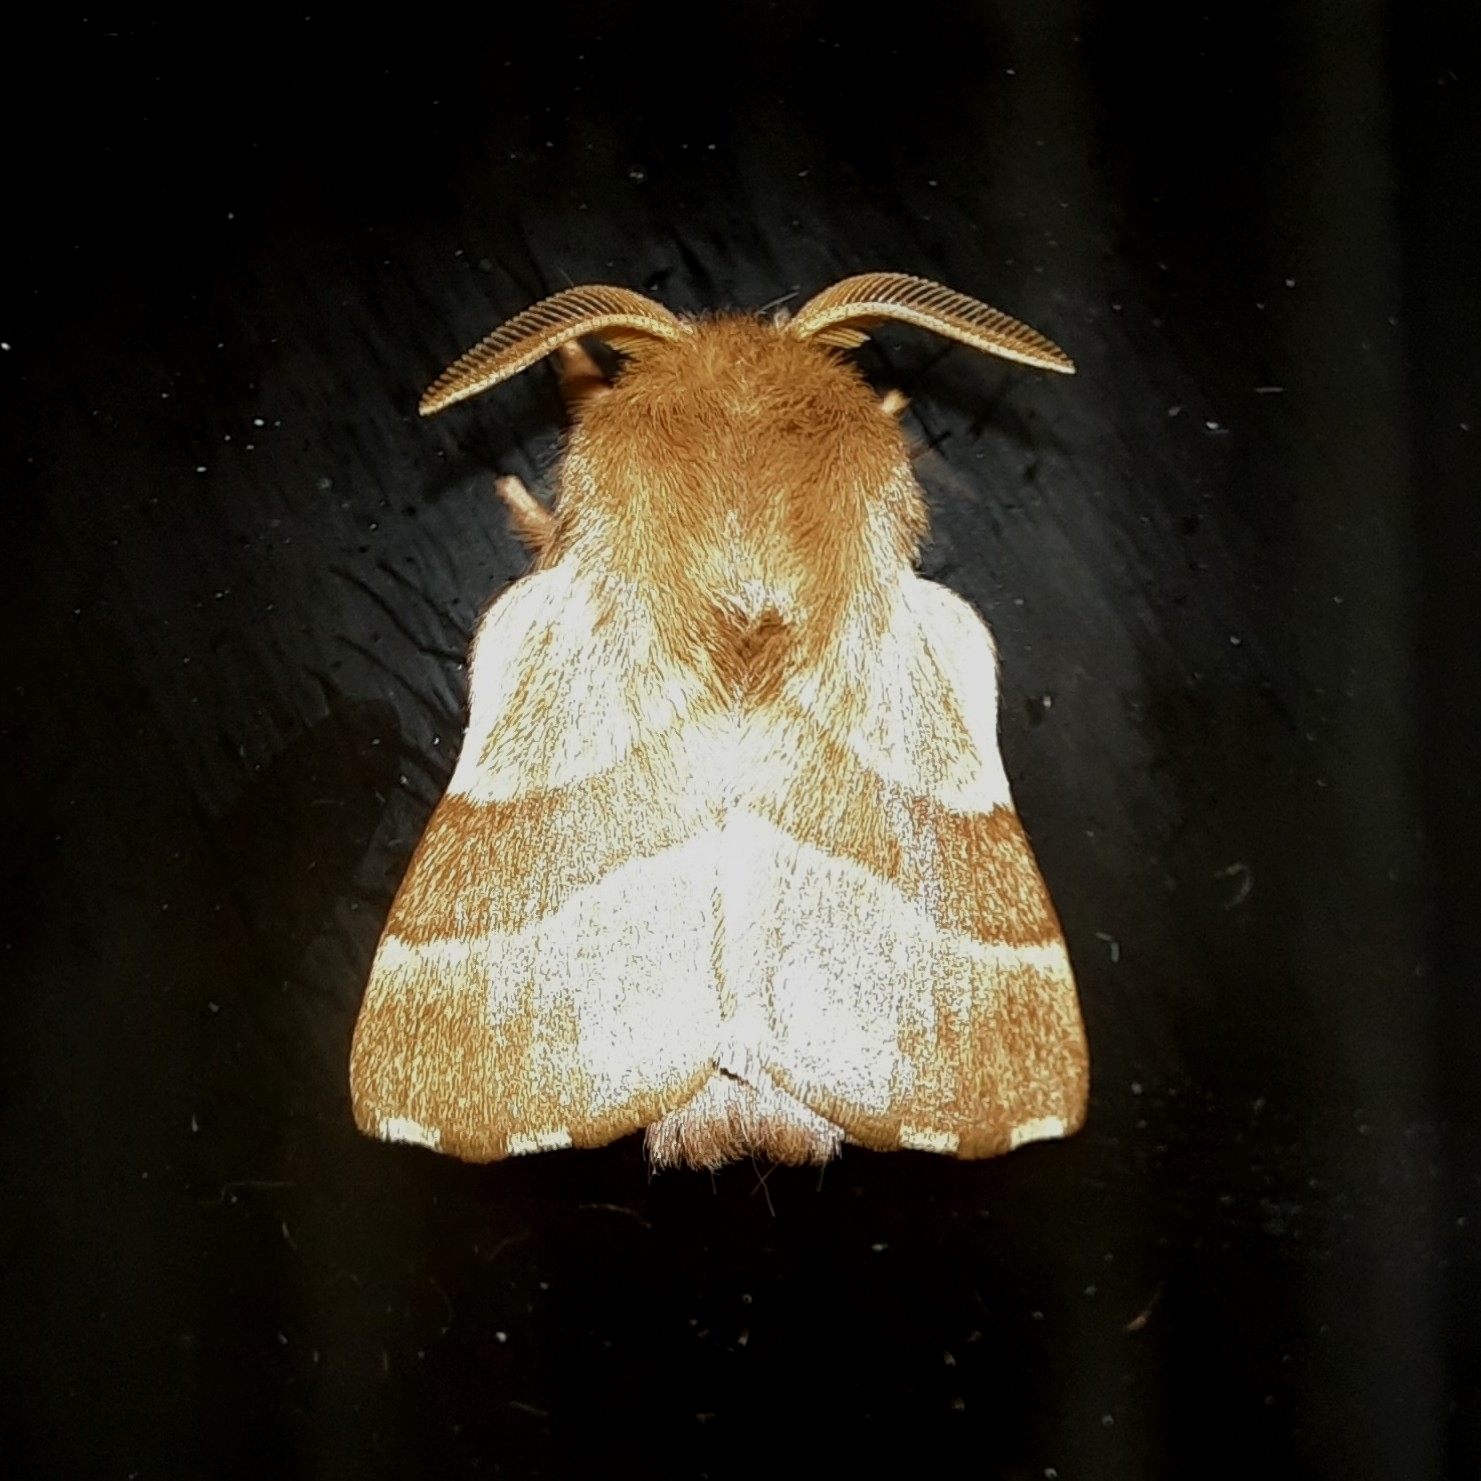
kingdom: Animalia
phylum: Arthropoda
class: Insecta
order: Lepidoptera
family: Lasiocampidae
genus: Malacosoma
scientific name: Malacosoma neustria
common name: The lackey
